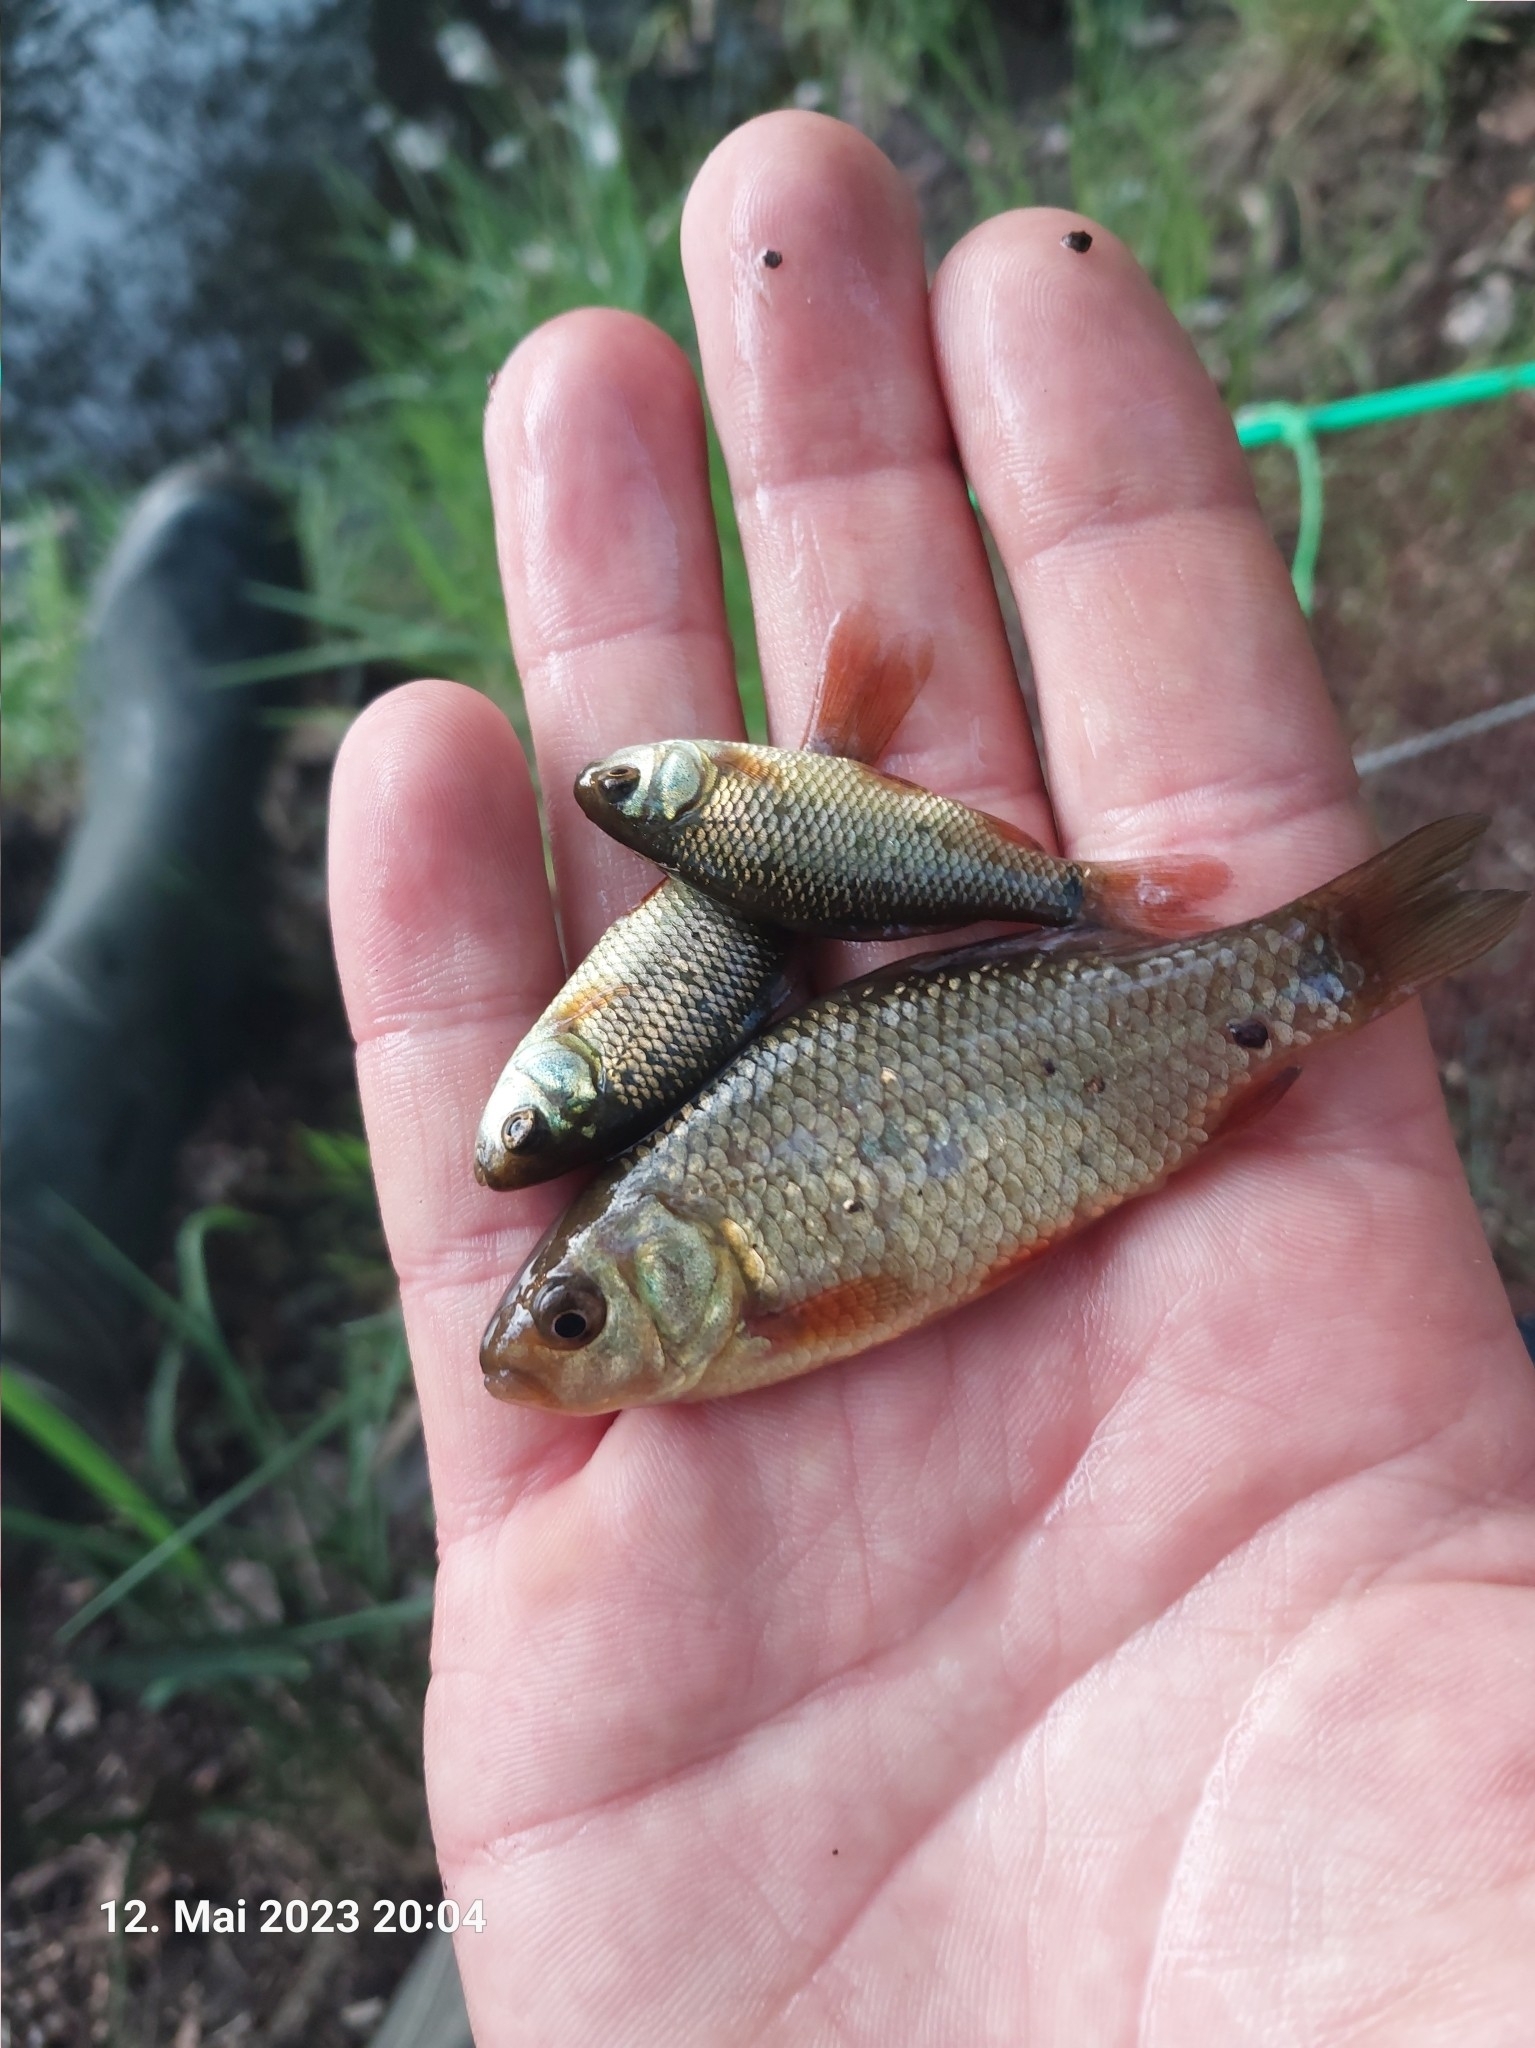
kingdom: Animalia
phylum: Chordata
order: Cypriniformes
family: Cyprinidae
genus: Carassius
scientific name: Carassius carassius
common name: Crucian carp
